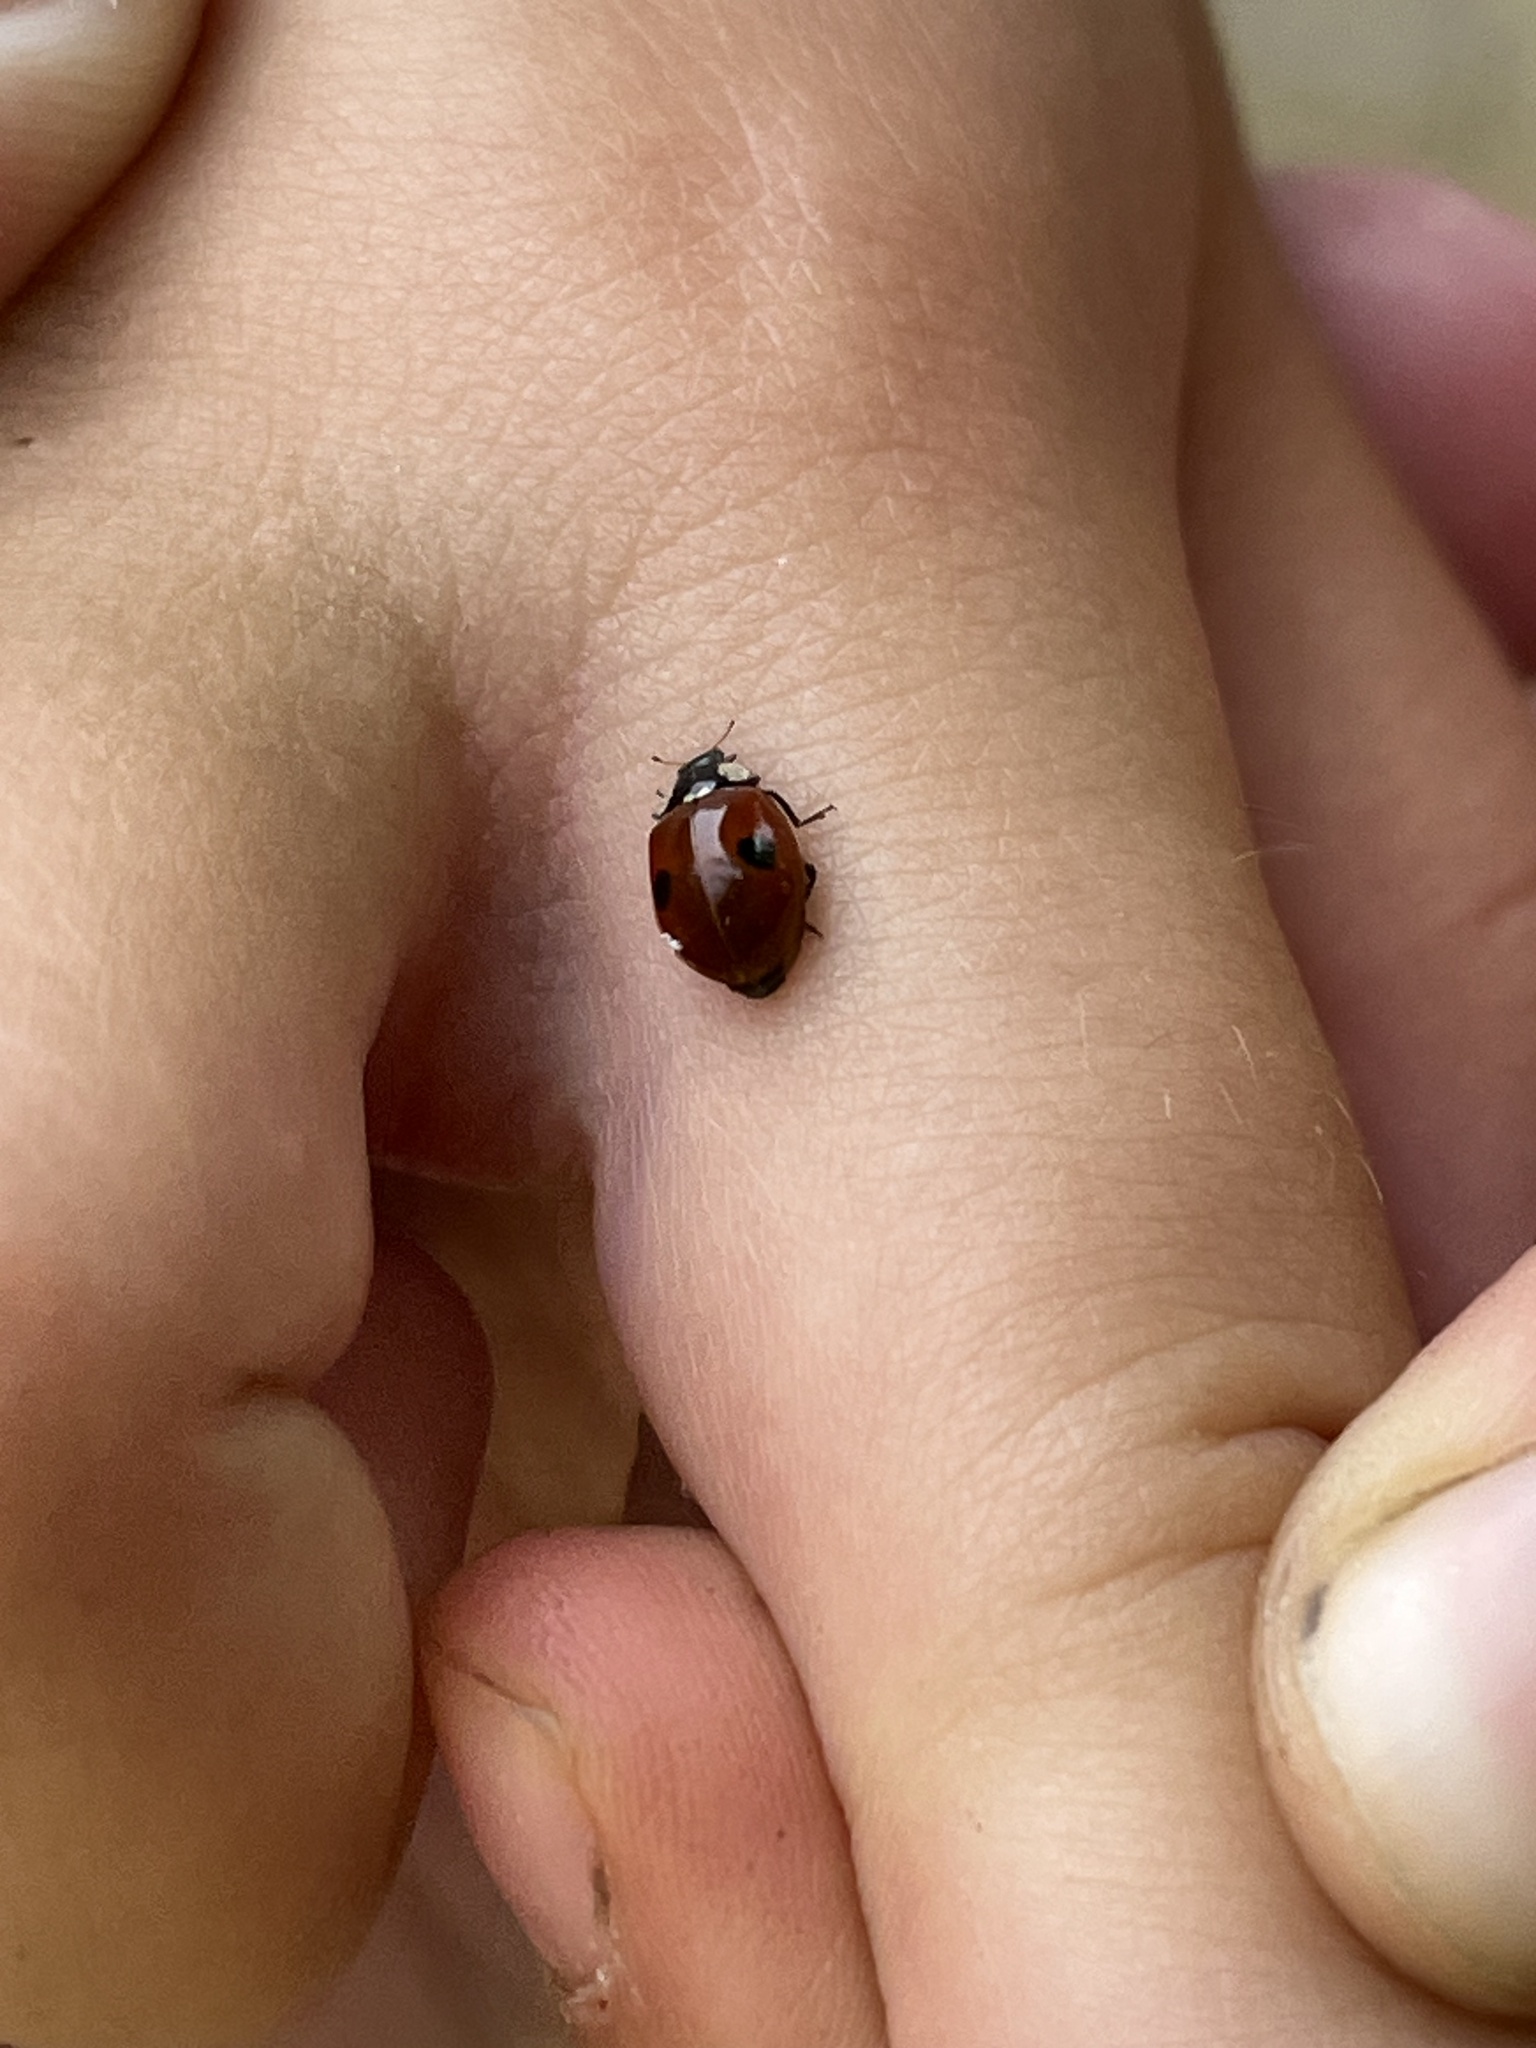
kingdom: Animalia
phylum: Arthropoda
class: Insecta
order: Coleoptera
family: Coccinellidae
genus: Adalia
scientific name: Adalia bipunctata
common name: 2-spot ladybird
